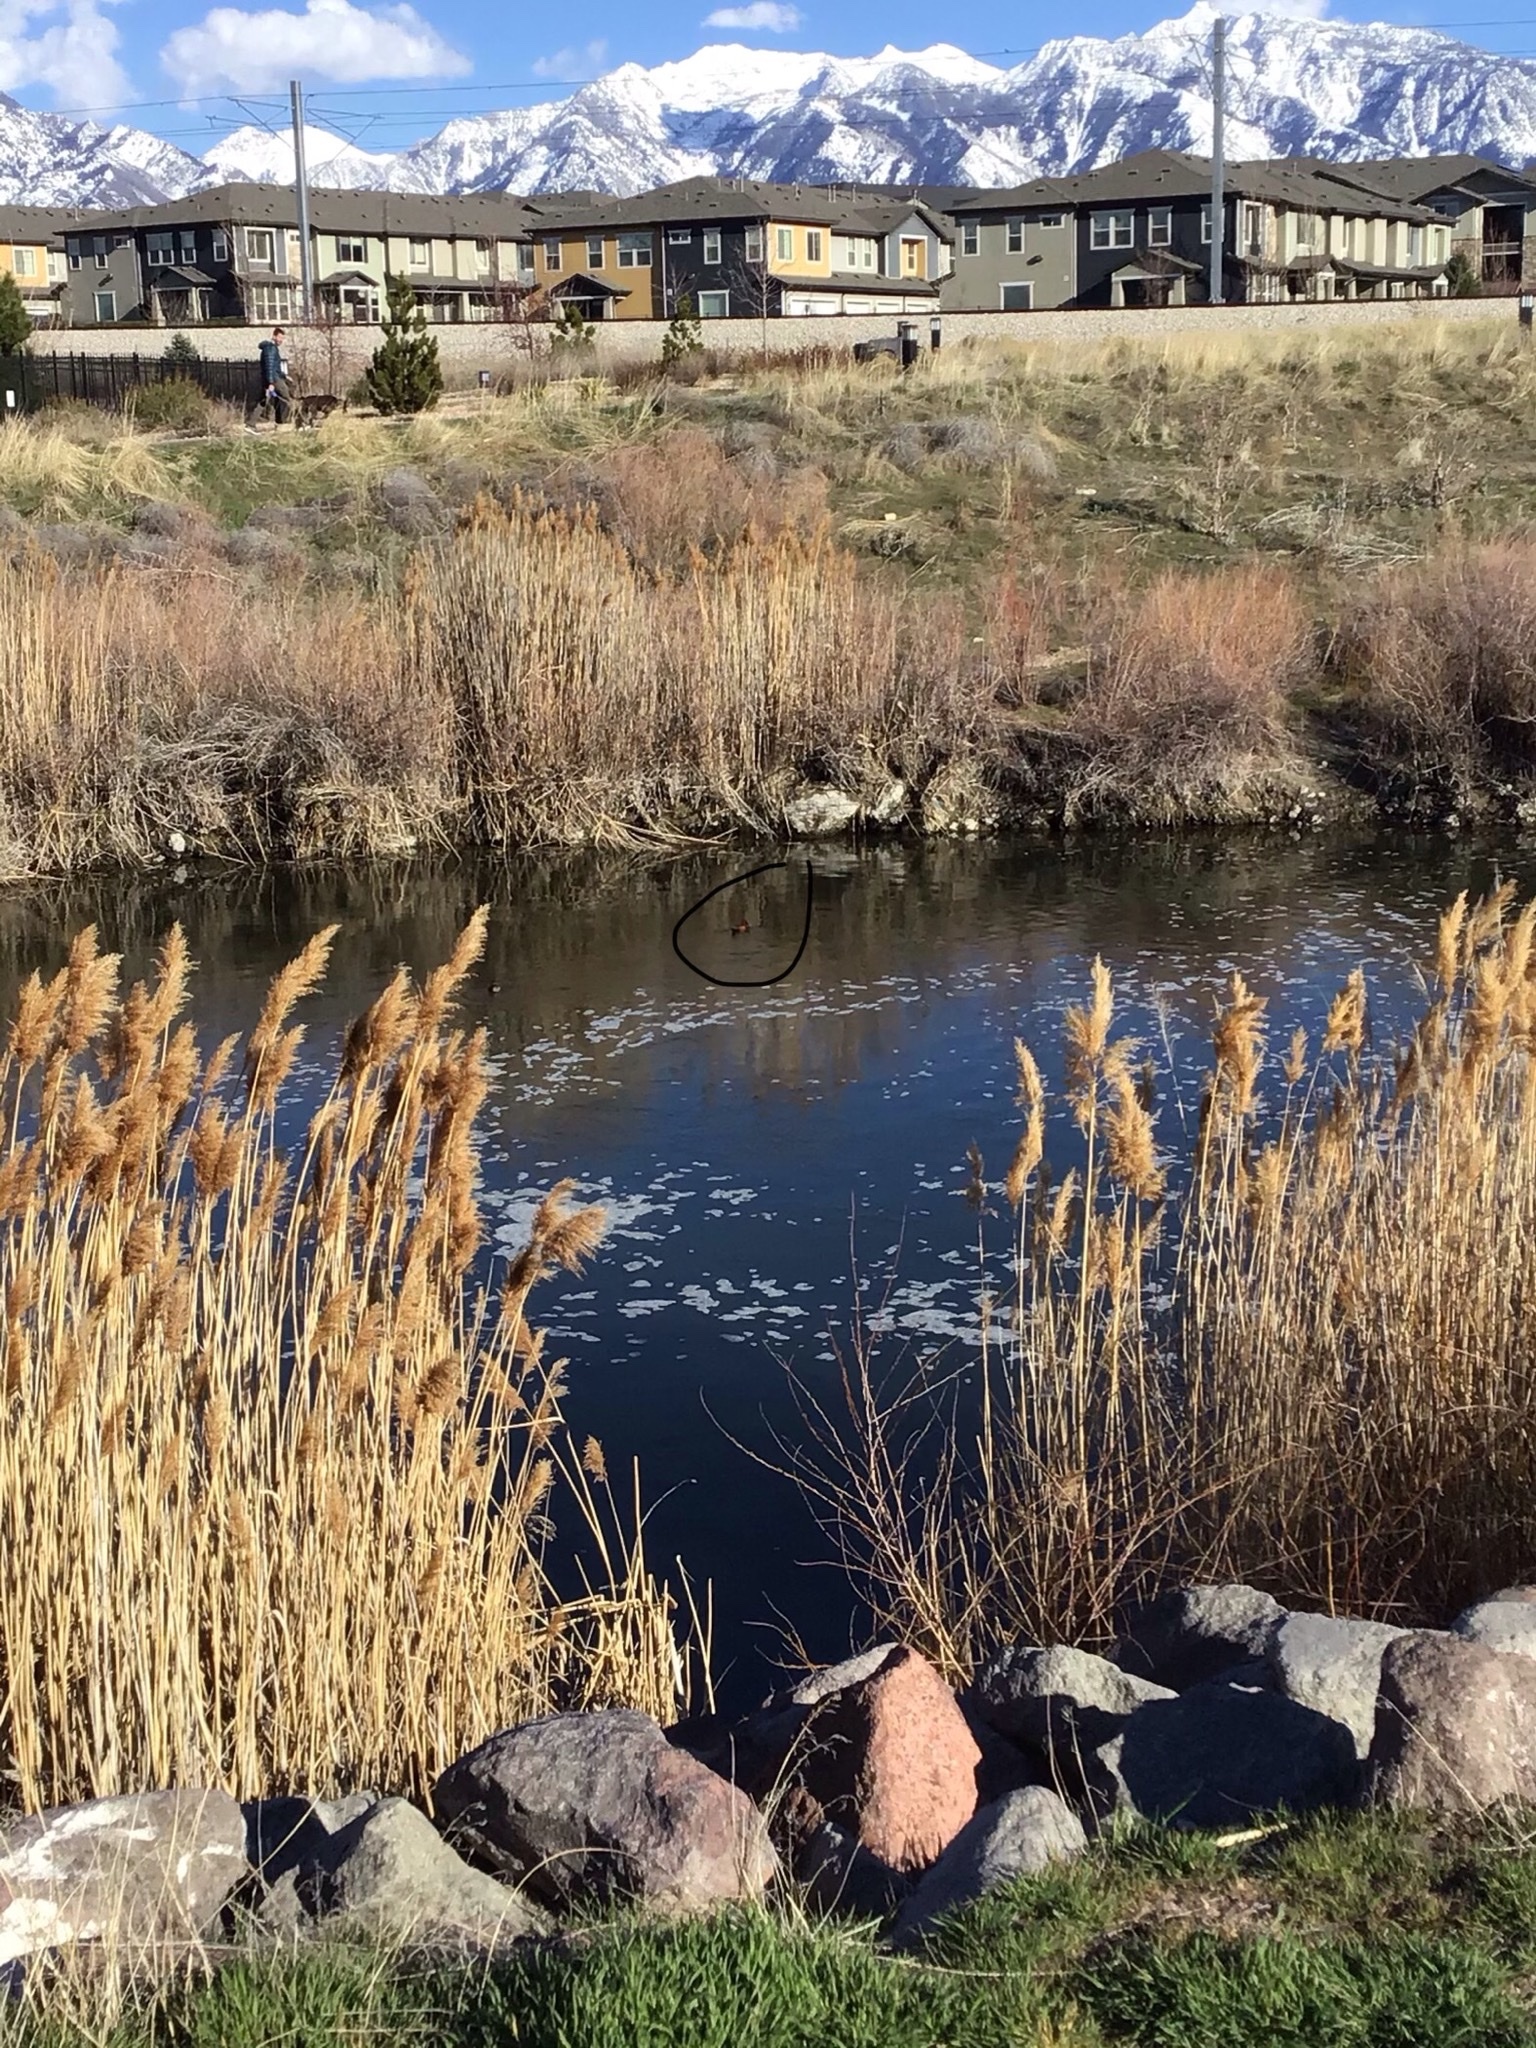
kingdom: Animalia
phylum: Chordata
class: Aves
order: Anseriformes
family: Anatidae
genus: Spatula
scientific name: Spatula cyanoptera
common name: Cinnamon teal
